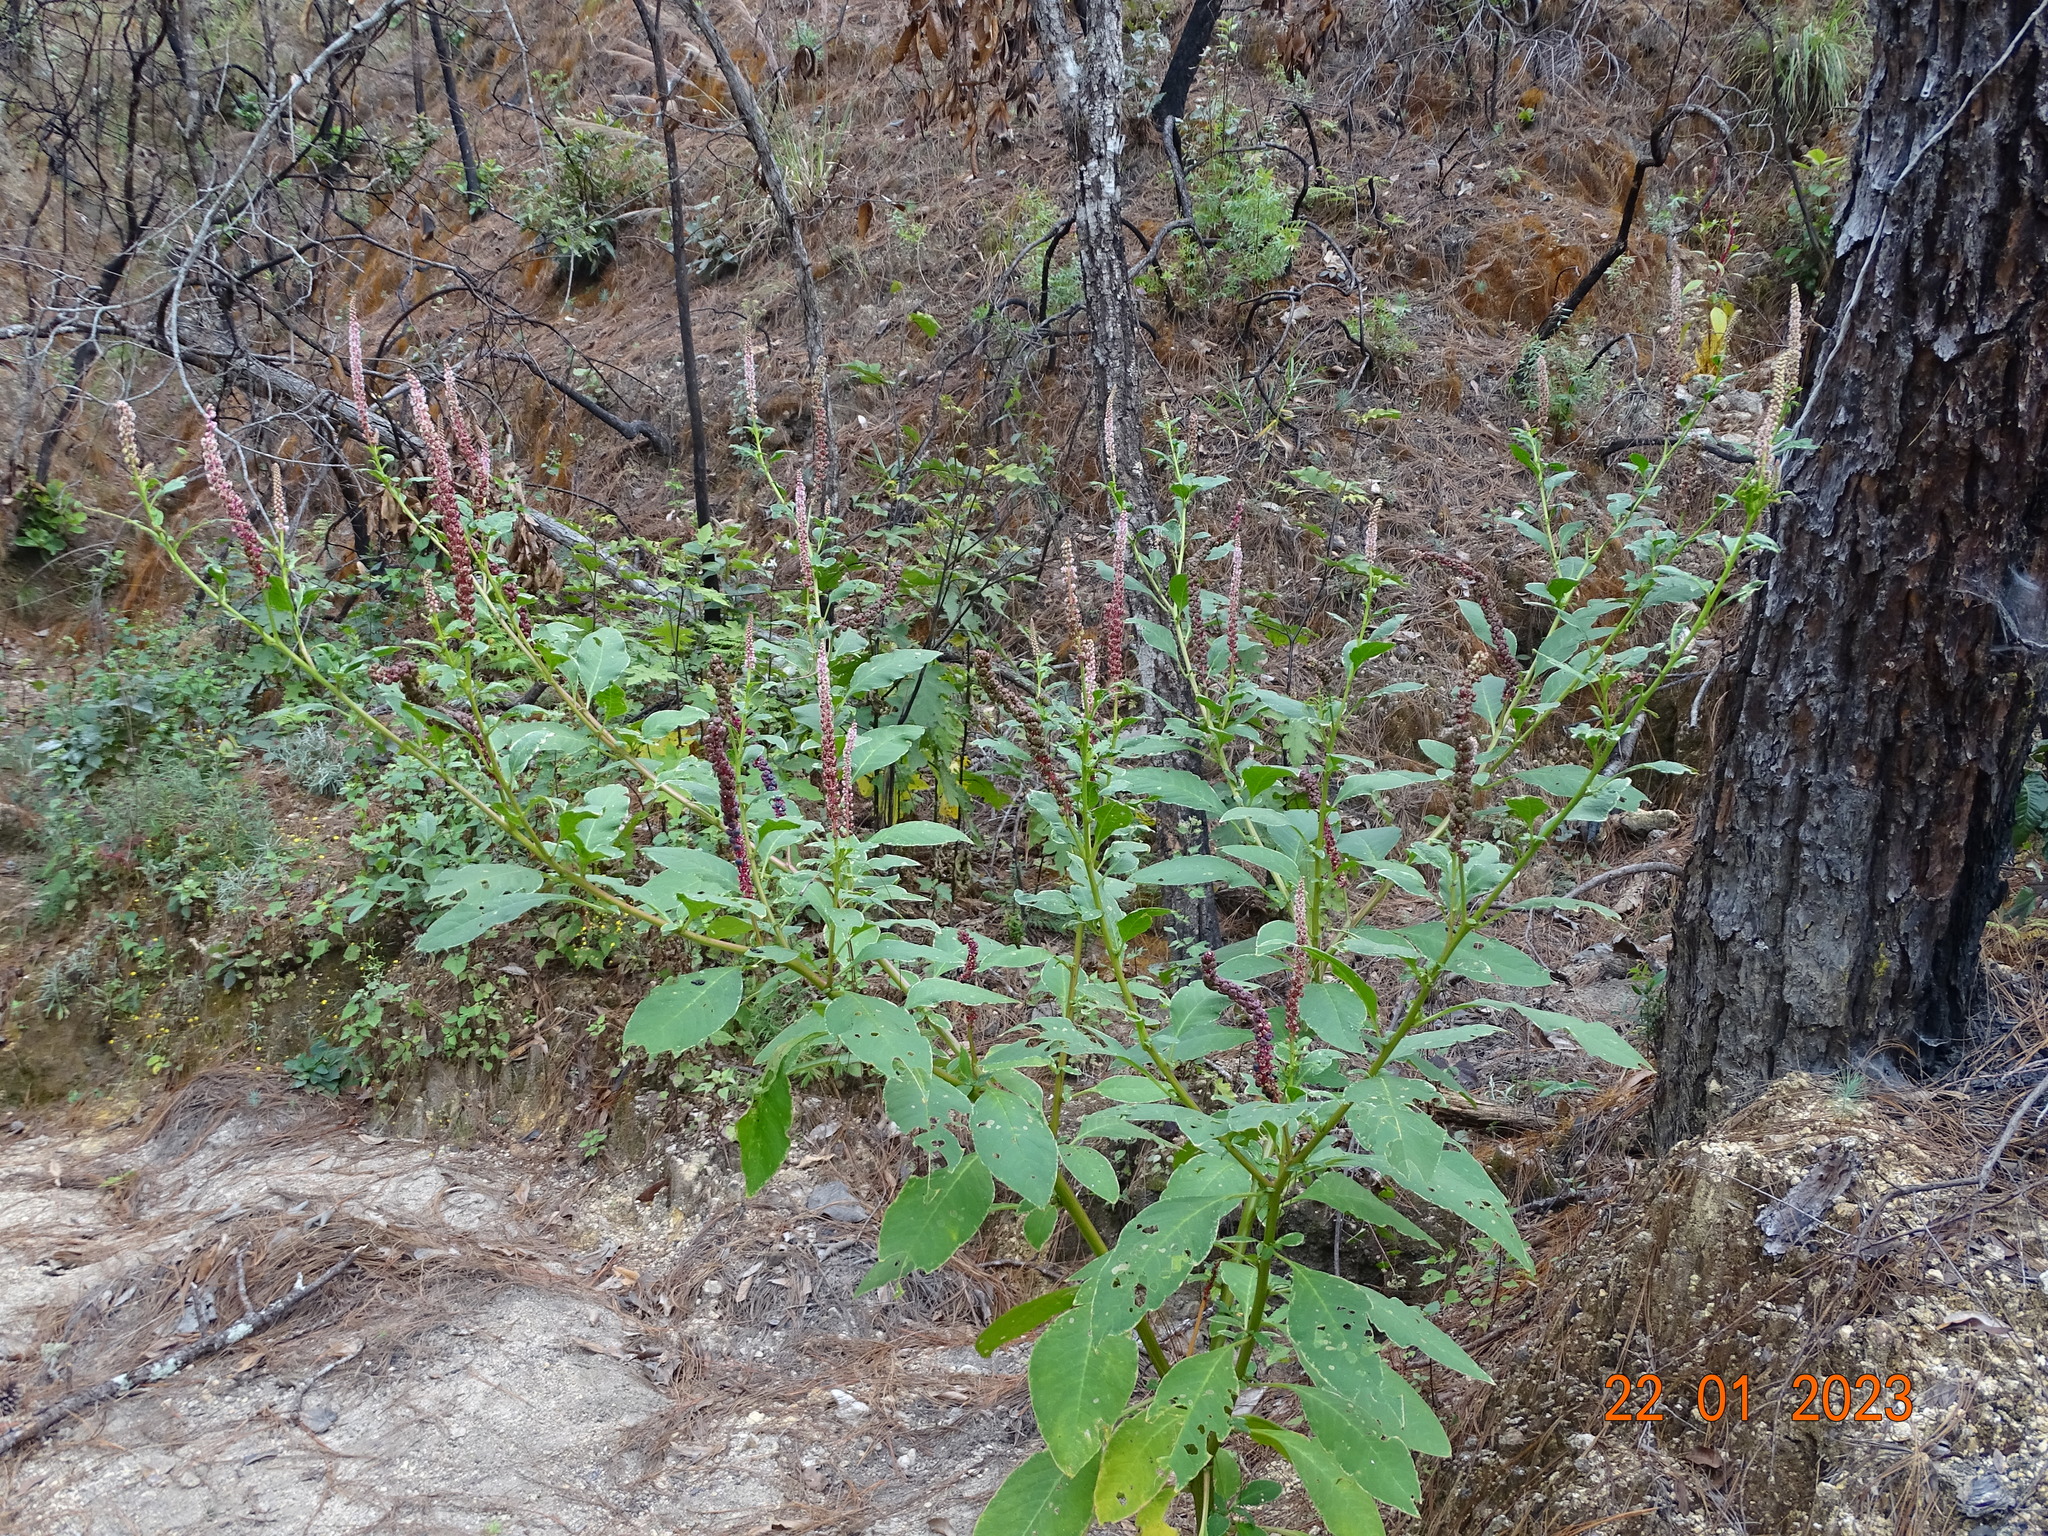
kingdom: Plantae
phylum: Tracheophyta
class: Magnoliopsida
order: Caryophyllales
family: Phytolaccaceae
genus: Phytolacca
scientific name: Phytolacca icosandra
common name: Button pokeweed
